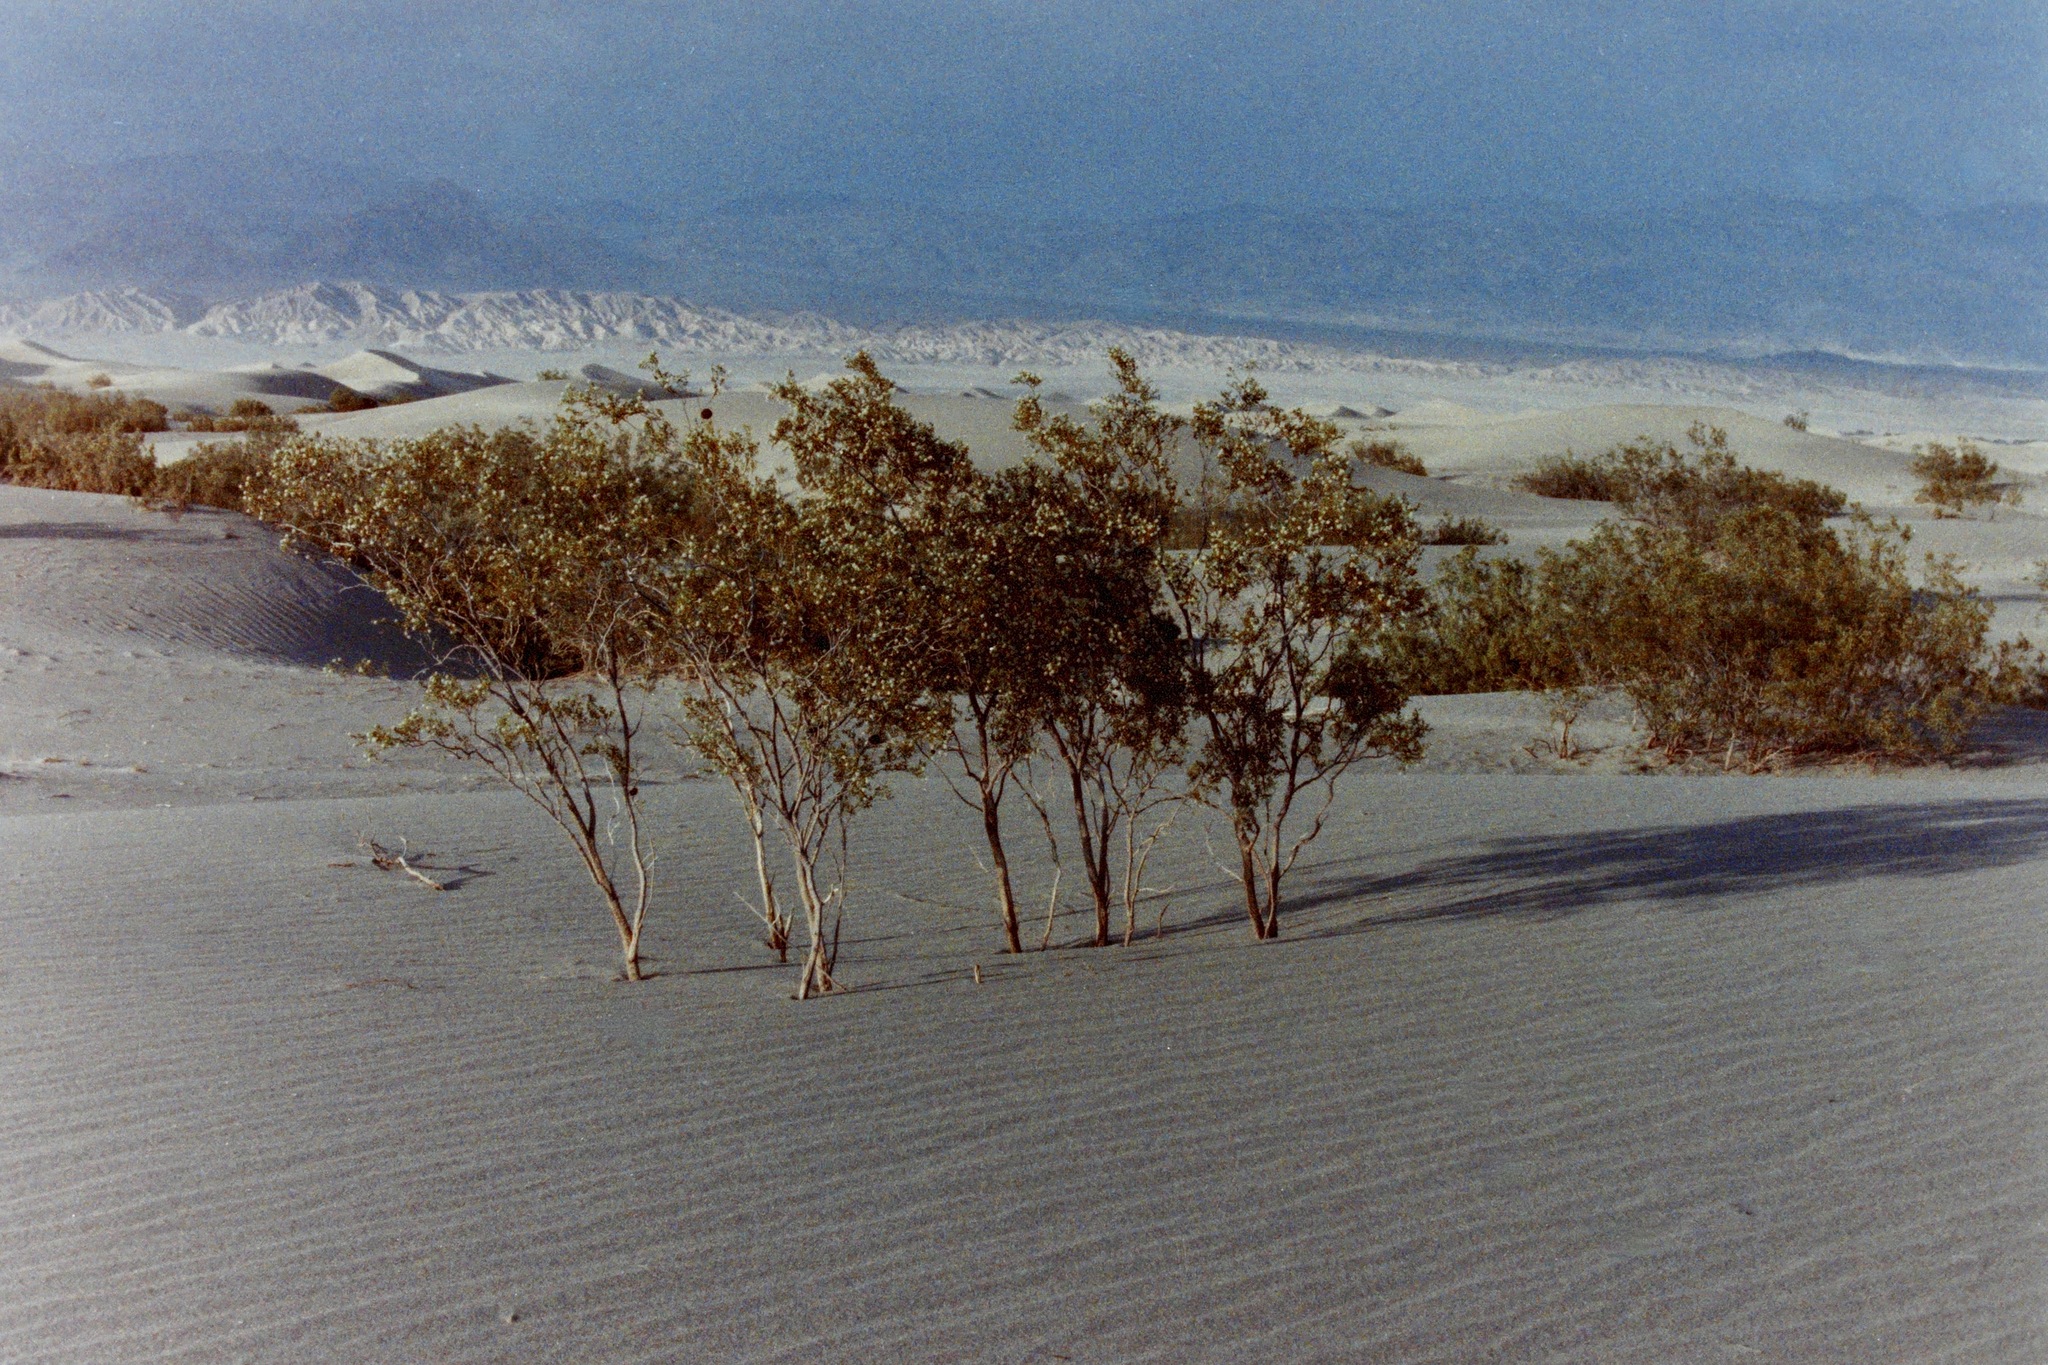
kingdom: Plantae
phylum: Tracheophyta
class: Magnoliopsida
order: Zygophyllales
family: Zygophyllaceae
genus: Larrea
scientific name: Larrea tridentata
